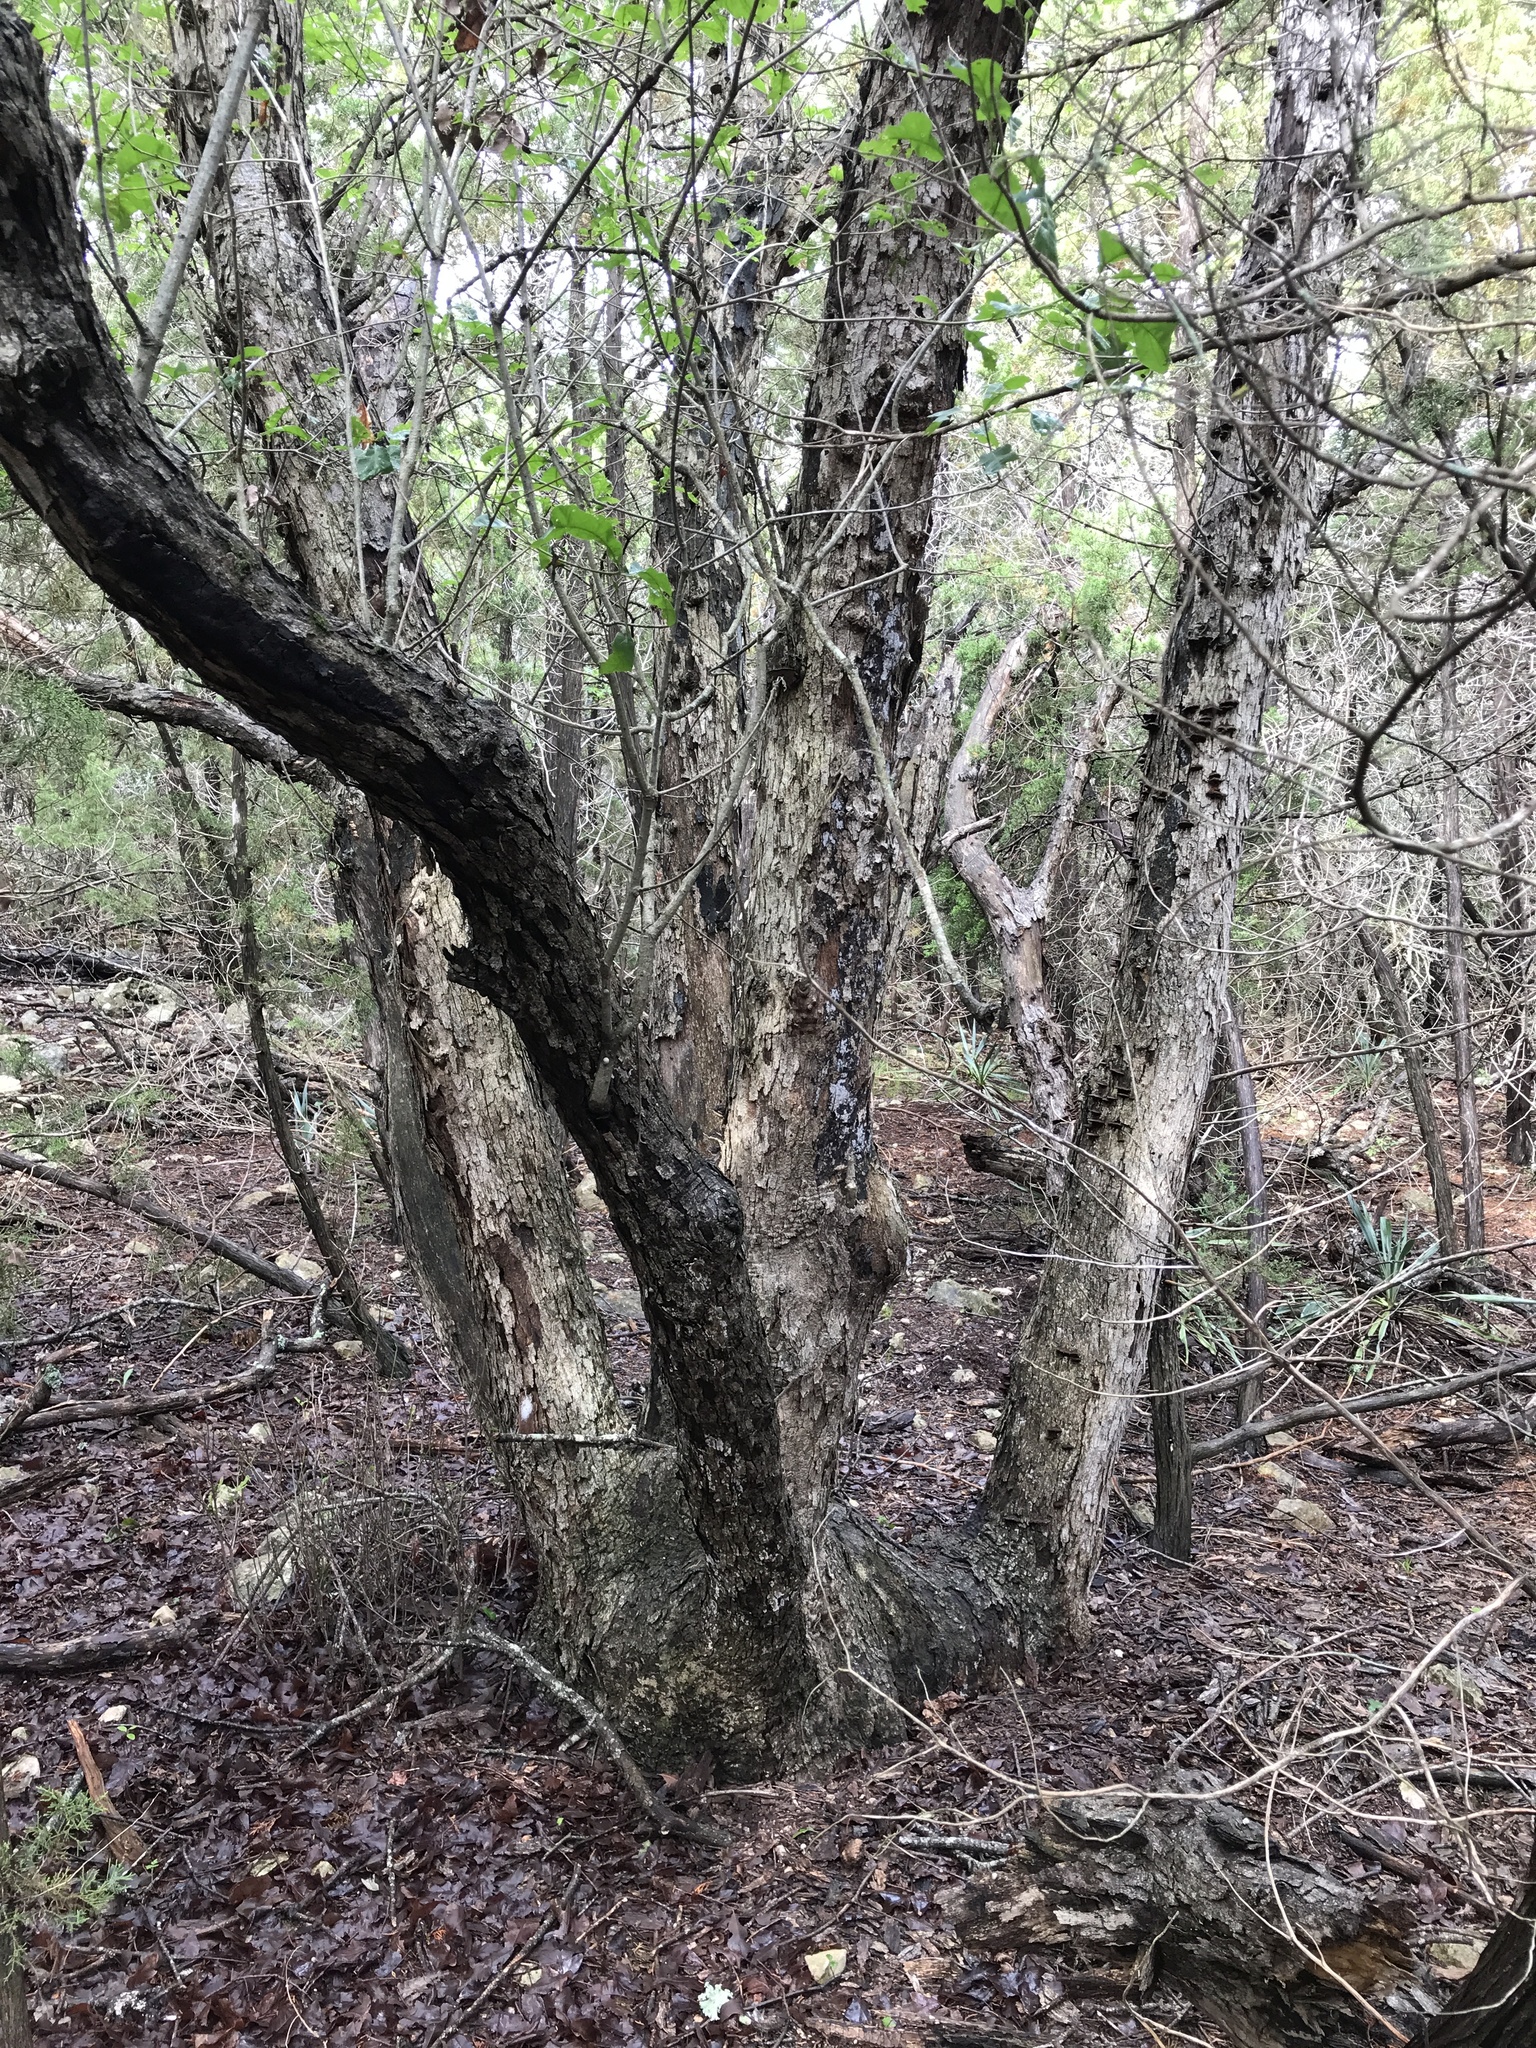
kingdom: Plantae
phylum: Tracheophyta
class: Magnoliopsida
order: Fagales
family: Fagaceae
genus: Quercus
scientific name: Quercus sinuata
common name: Durand oak
